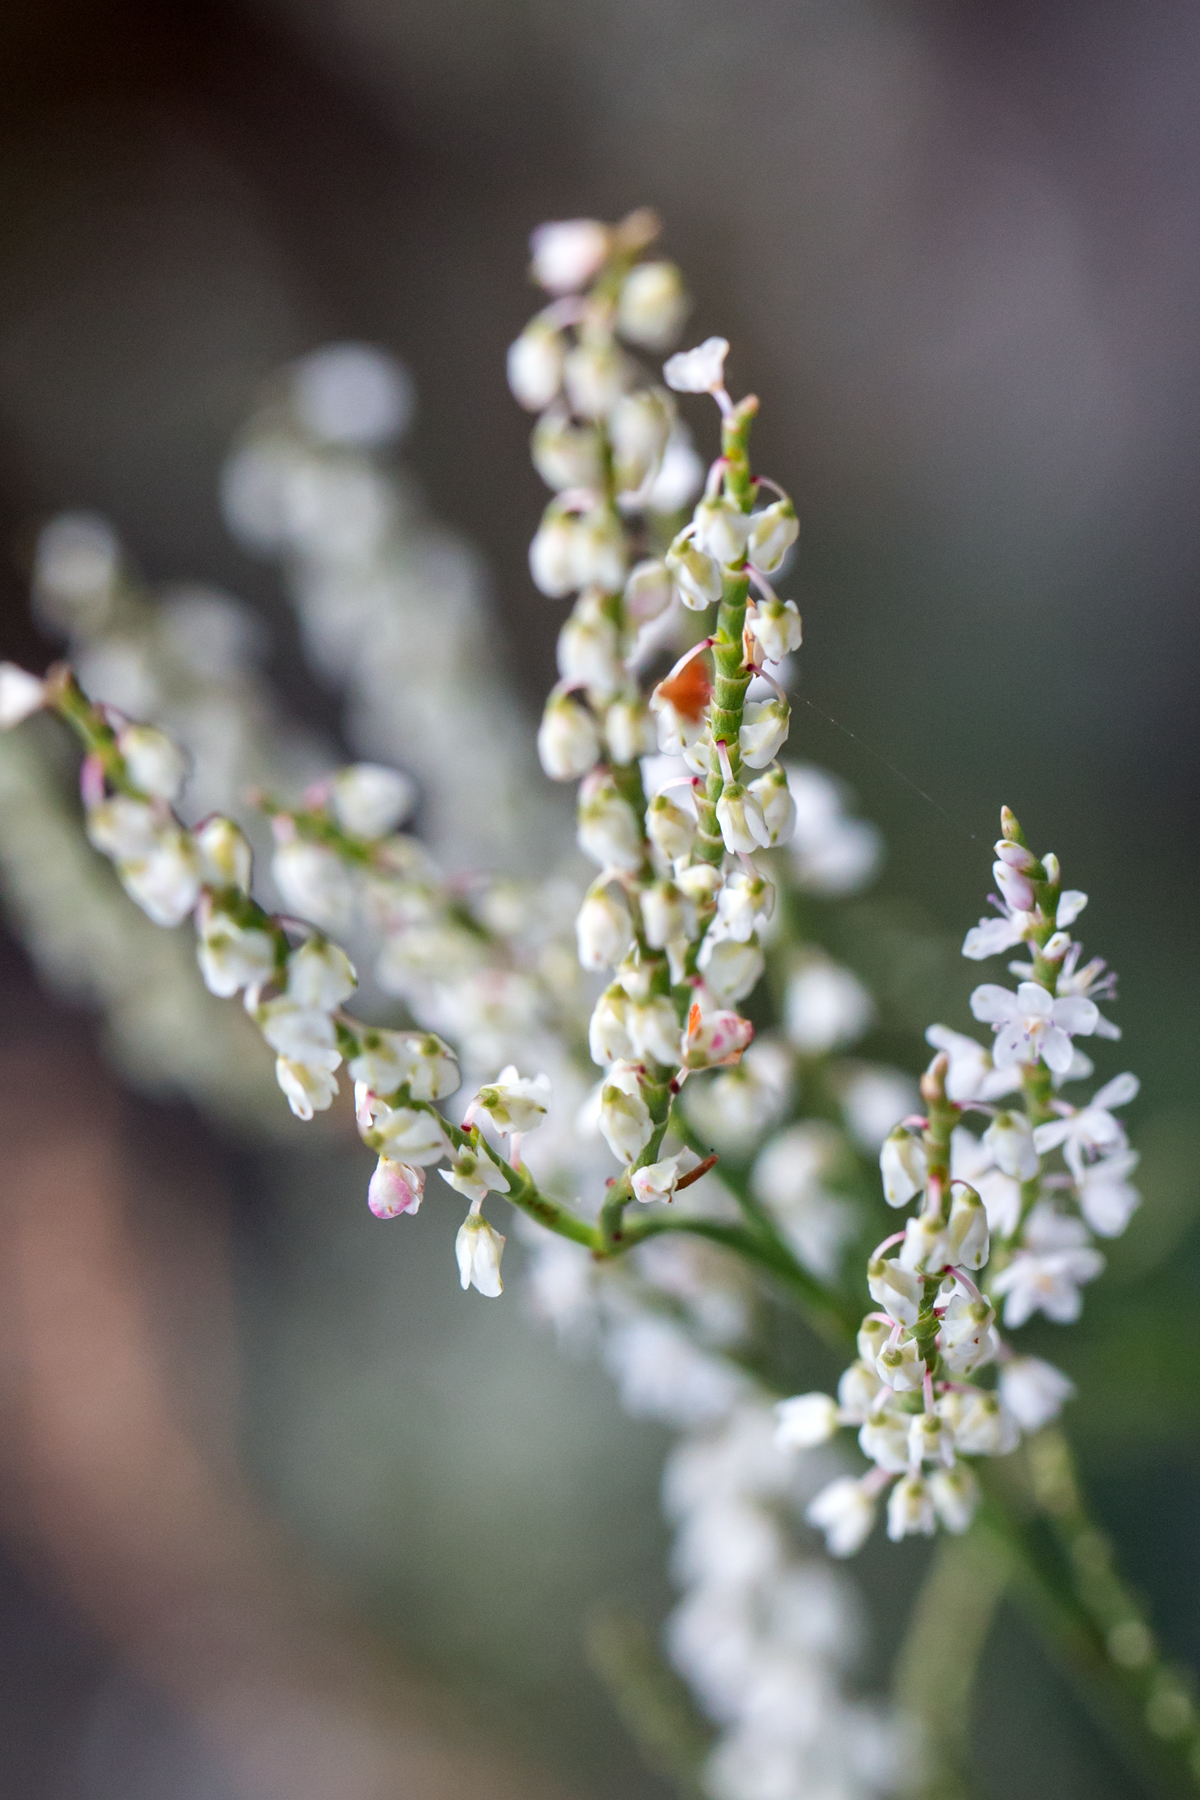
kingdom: Plantae
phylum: Tracheophyta
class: Magnoliopsida
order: Caryophyllales
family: Polygonaceae
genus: Polygonella
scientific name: Polygonella articulata
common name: Coastal jointweed
